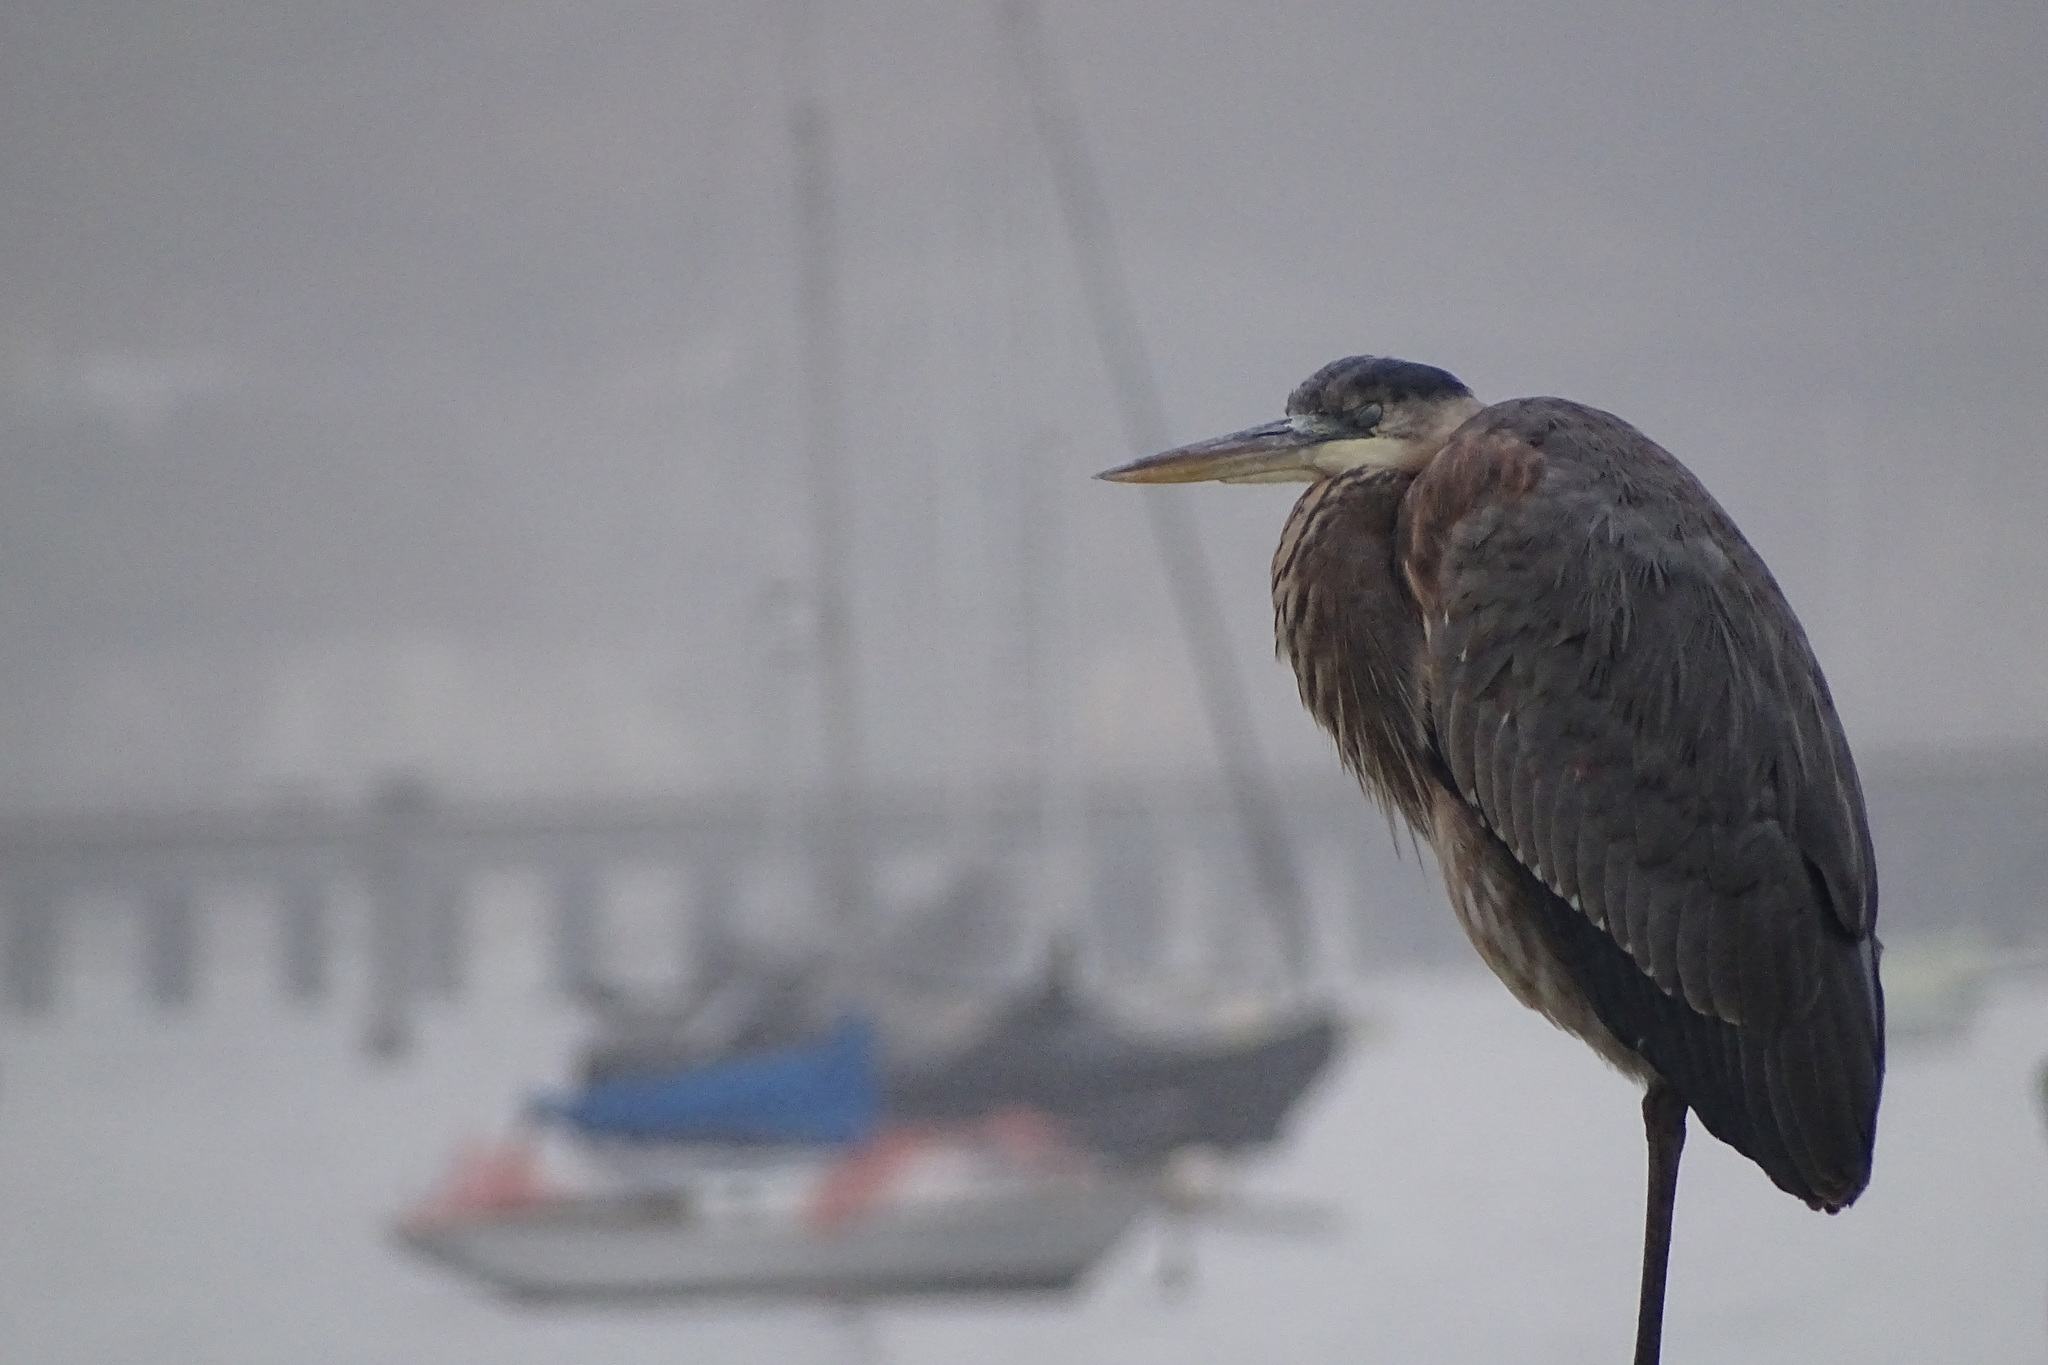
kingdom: Animalia
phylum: Chordata
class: Aves
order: Pelecaniformes
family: Ardeidae
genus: Ardea
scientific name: Ardea herodias
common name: Great blue heron
